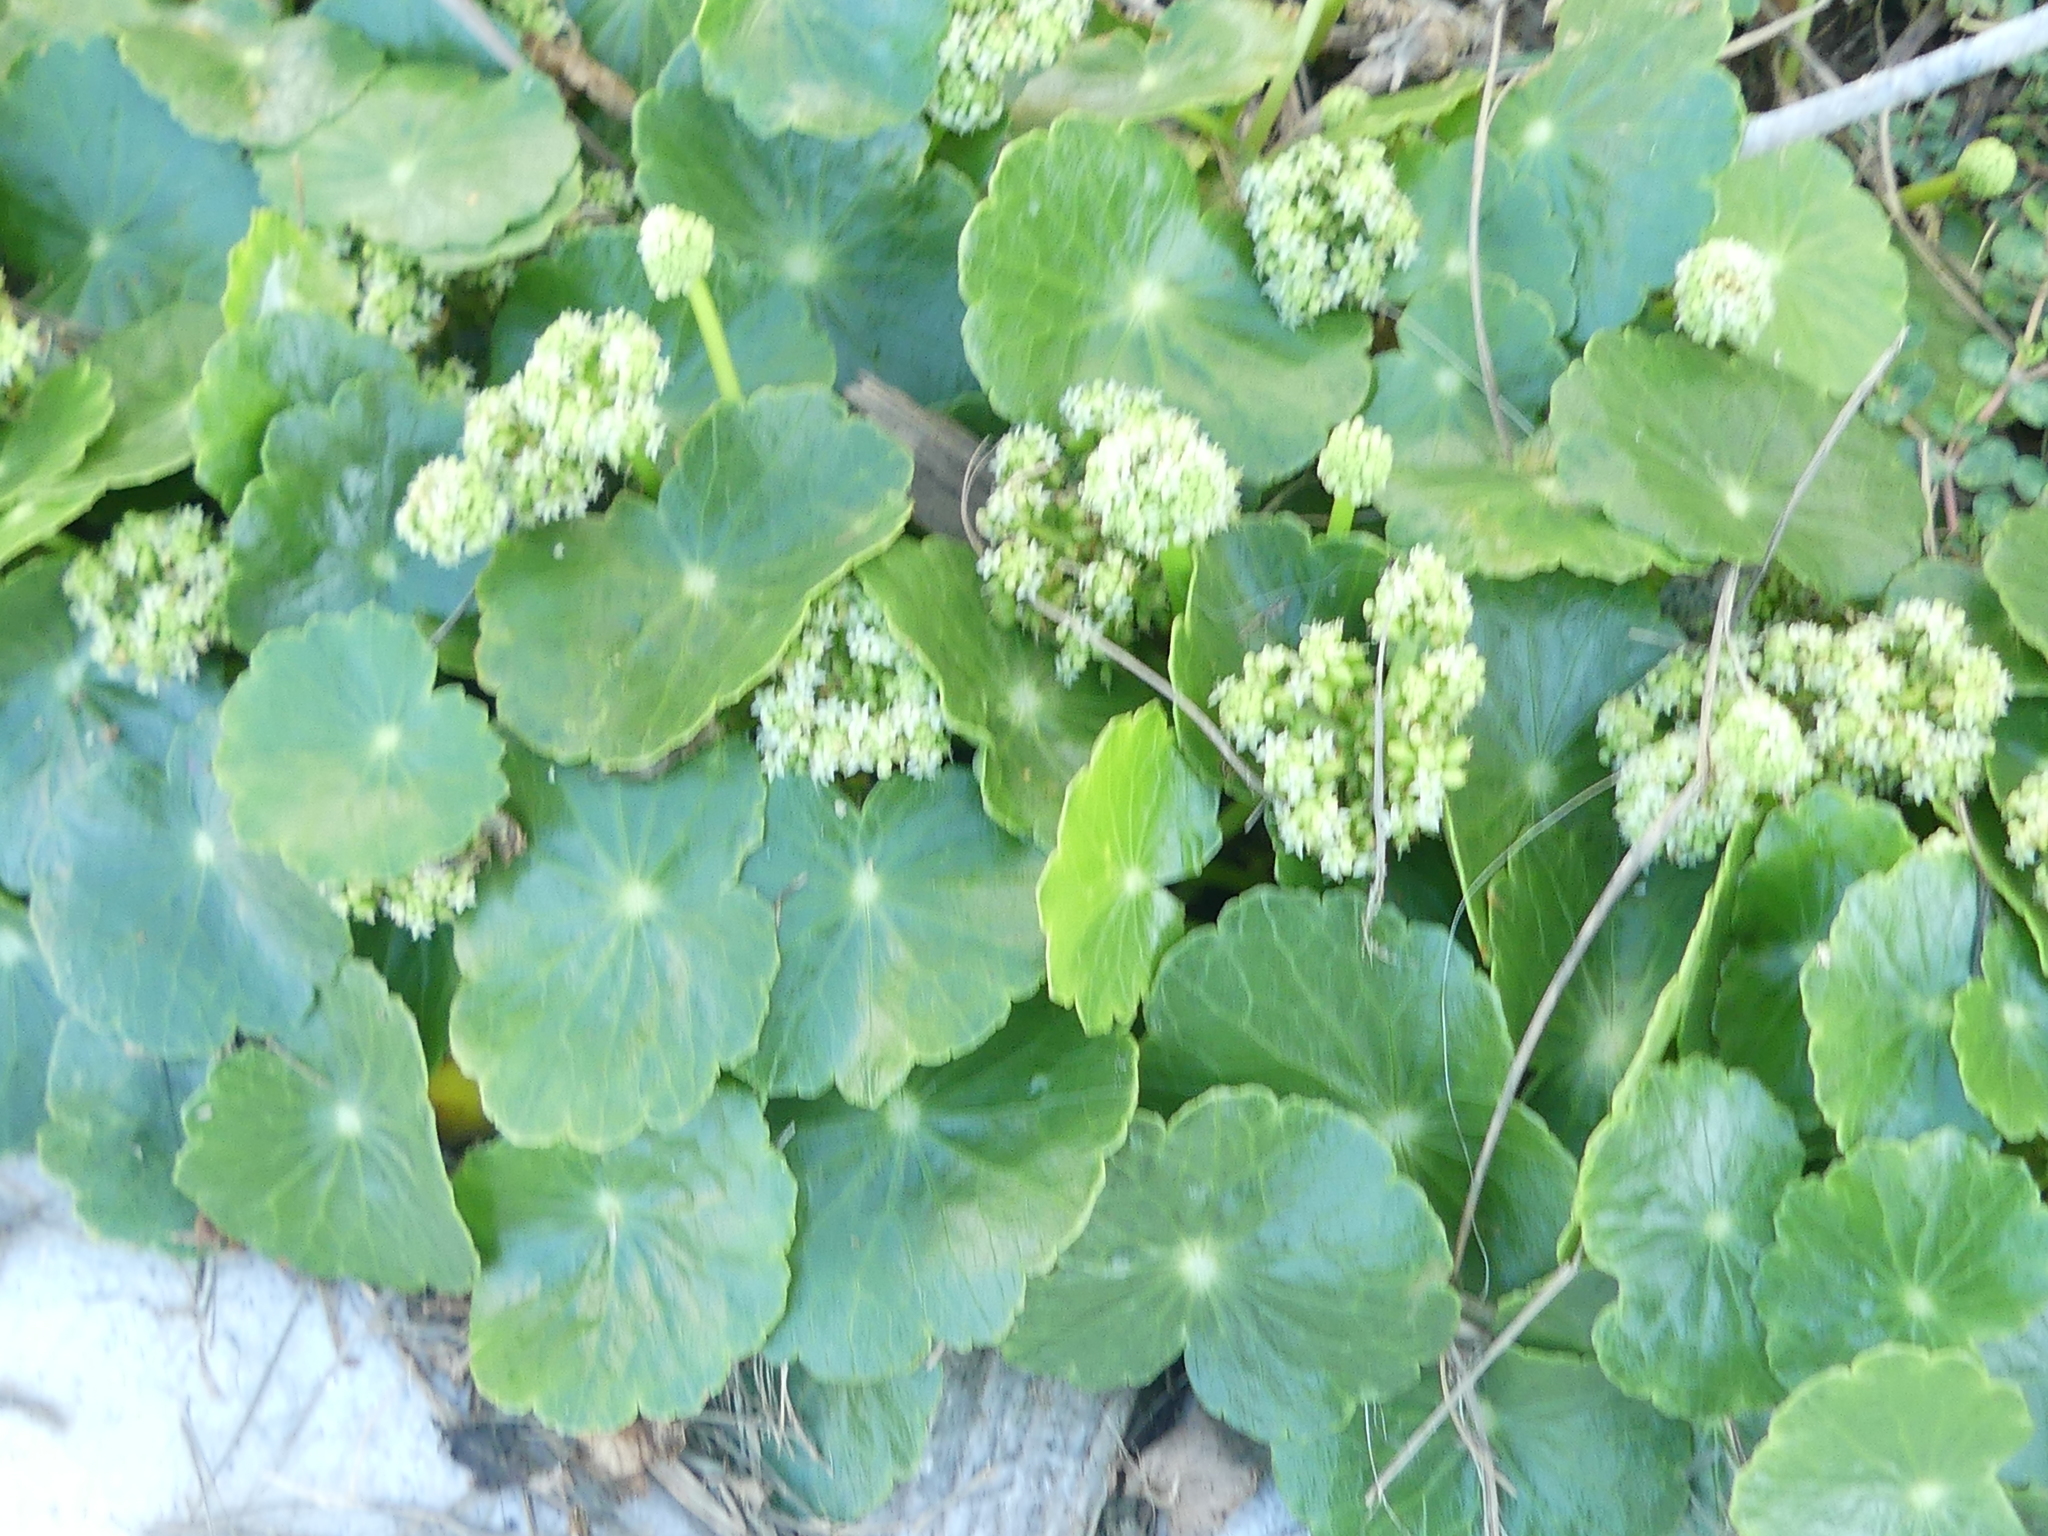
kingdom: Plantae
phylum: Tracheophyta
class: Magnoliopsida
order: Apiales
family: Araliaceae
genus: Hydrocotyle
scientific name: Hydrocotyle bonariensis
